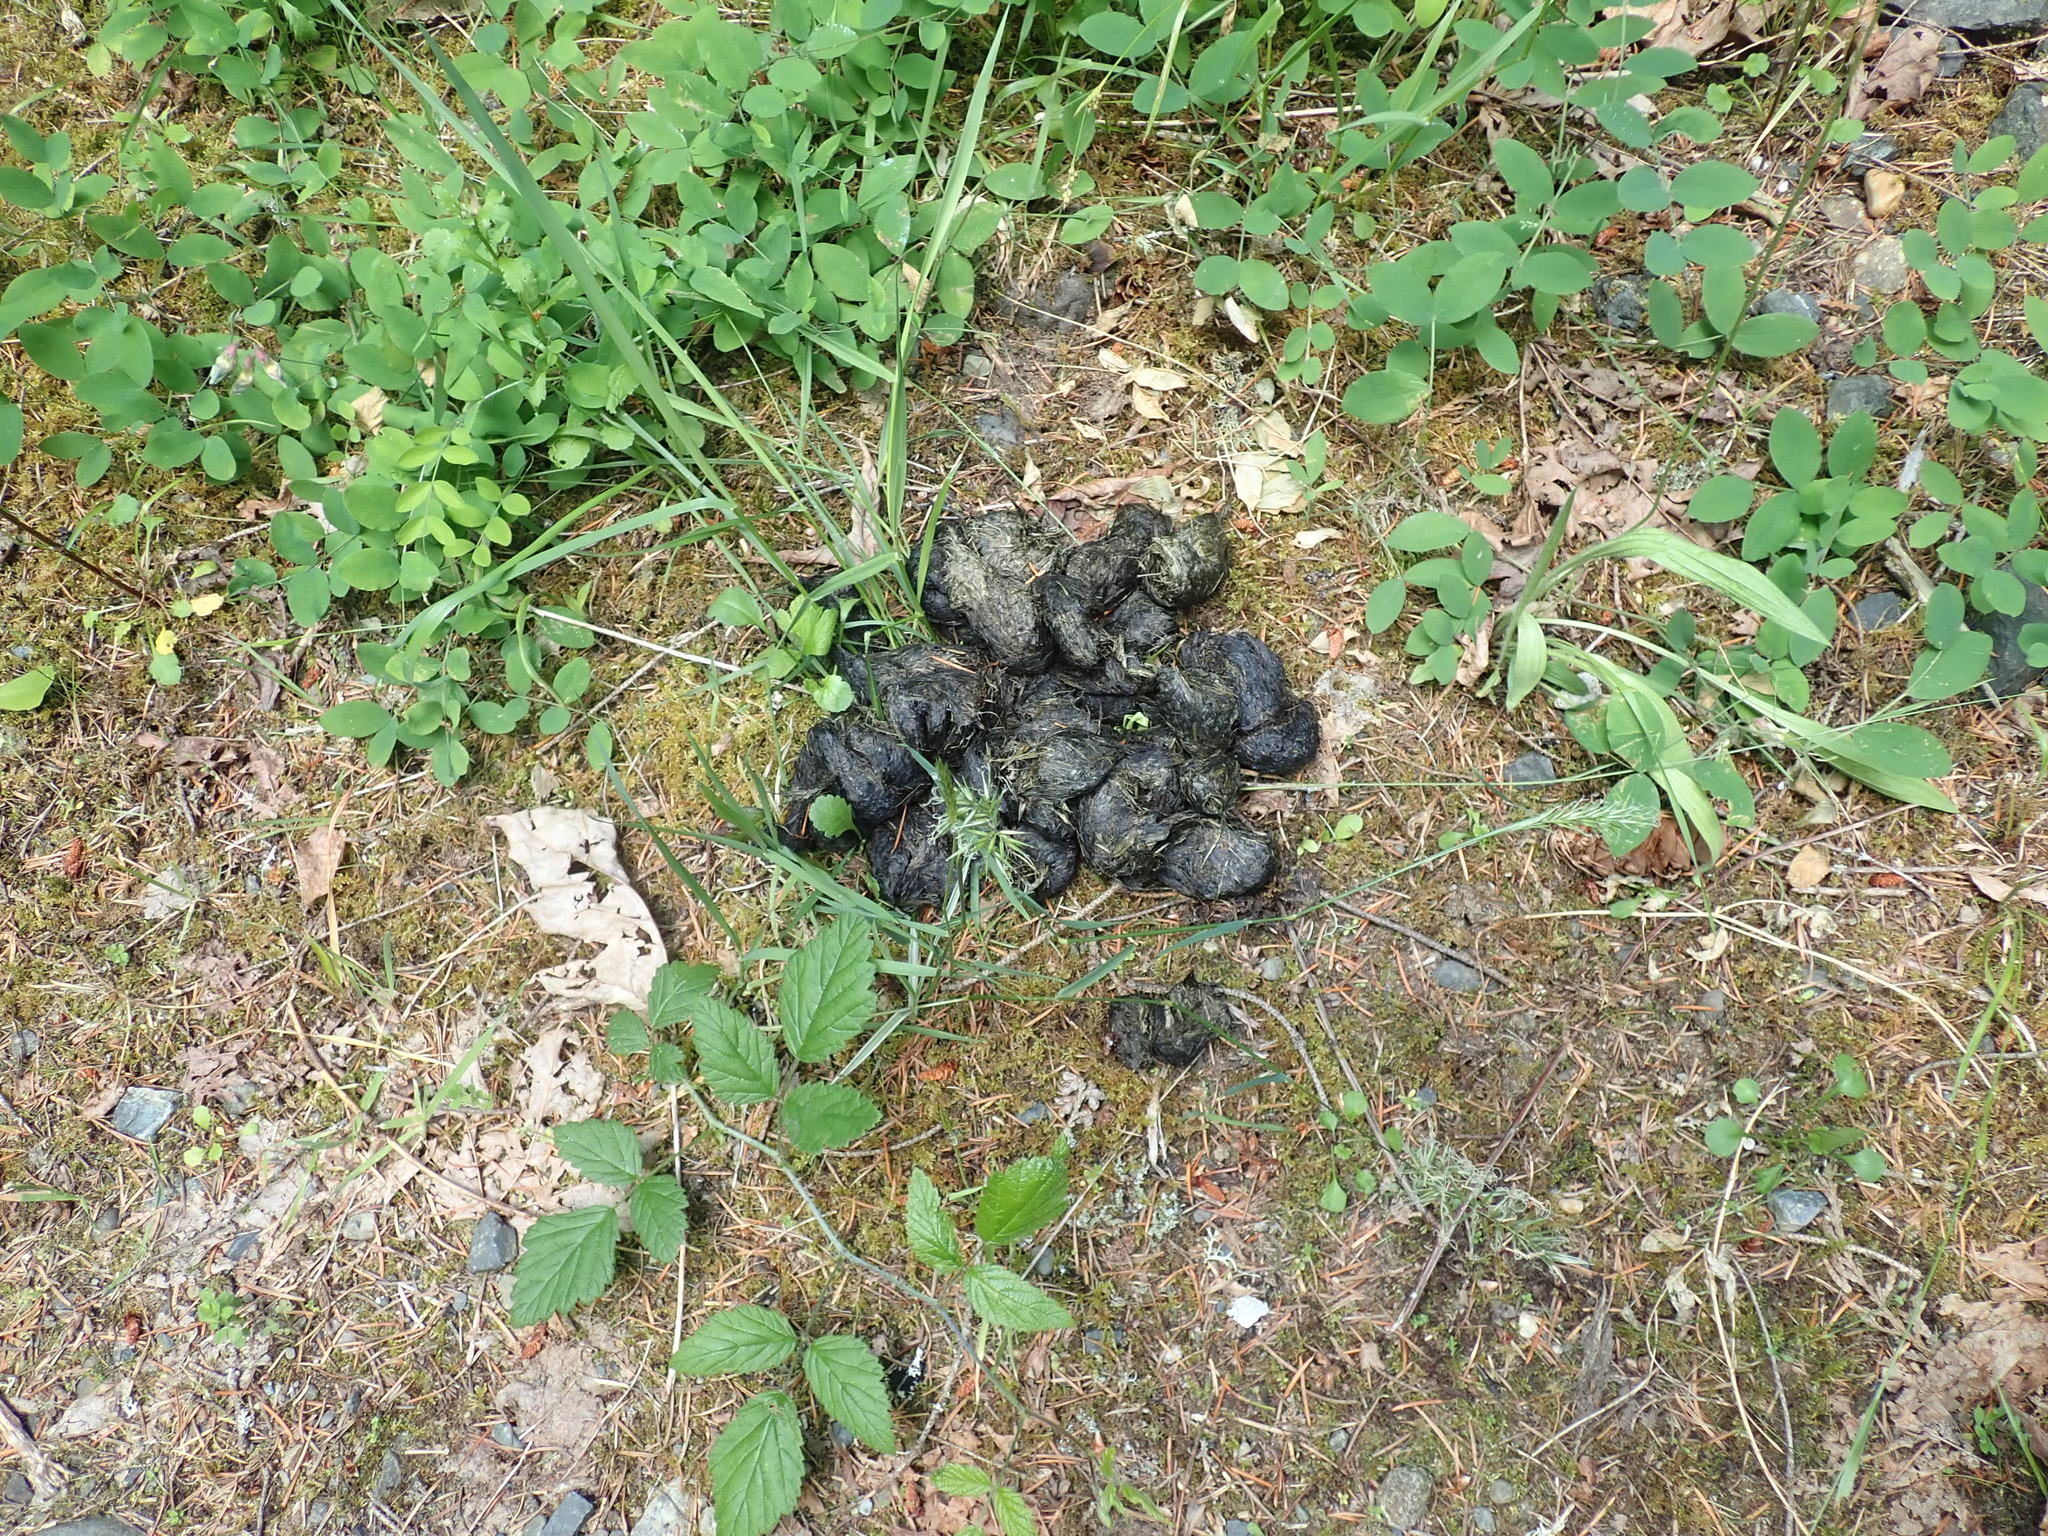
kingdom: Animalia
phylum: Chordata
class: Mammalia
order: Carnivora
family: Ursidae
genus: Ursus
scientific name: Ursus americanus
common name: American black bear
